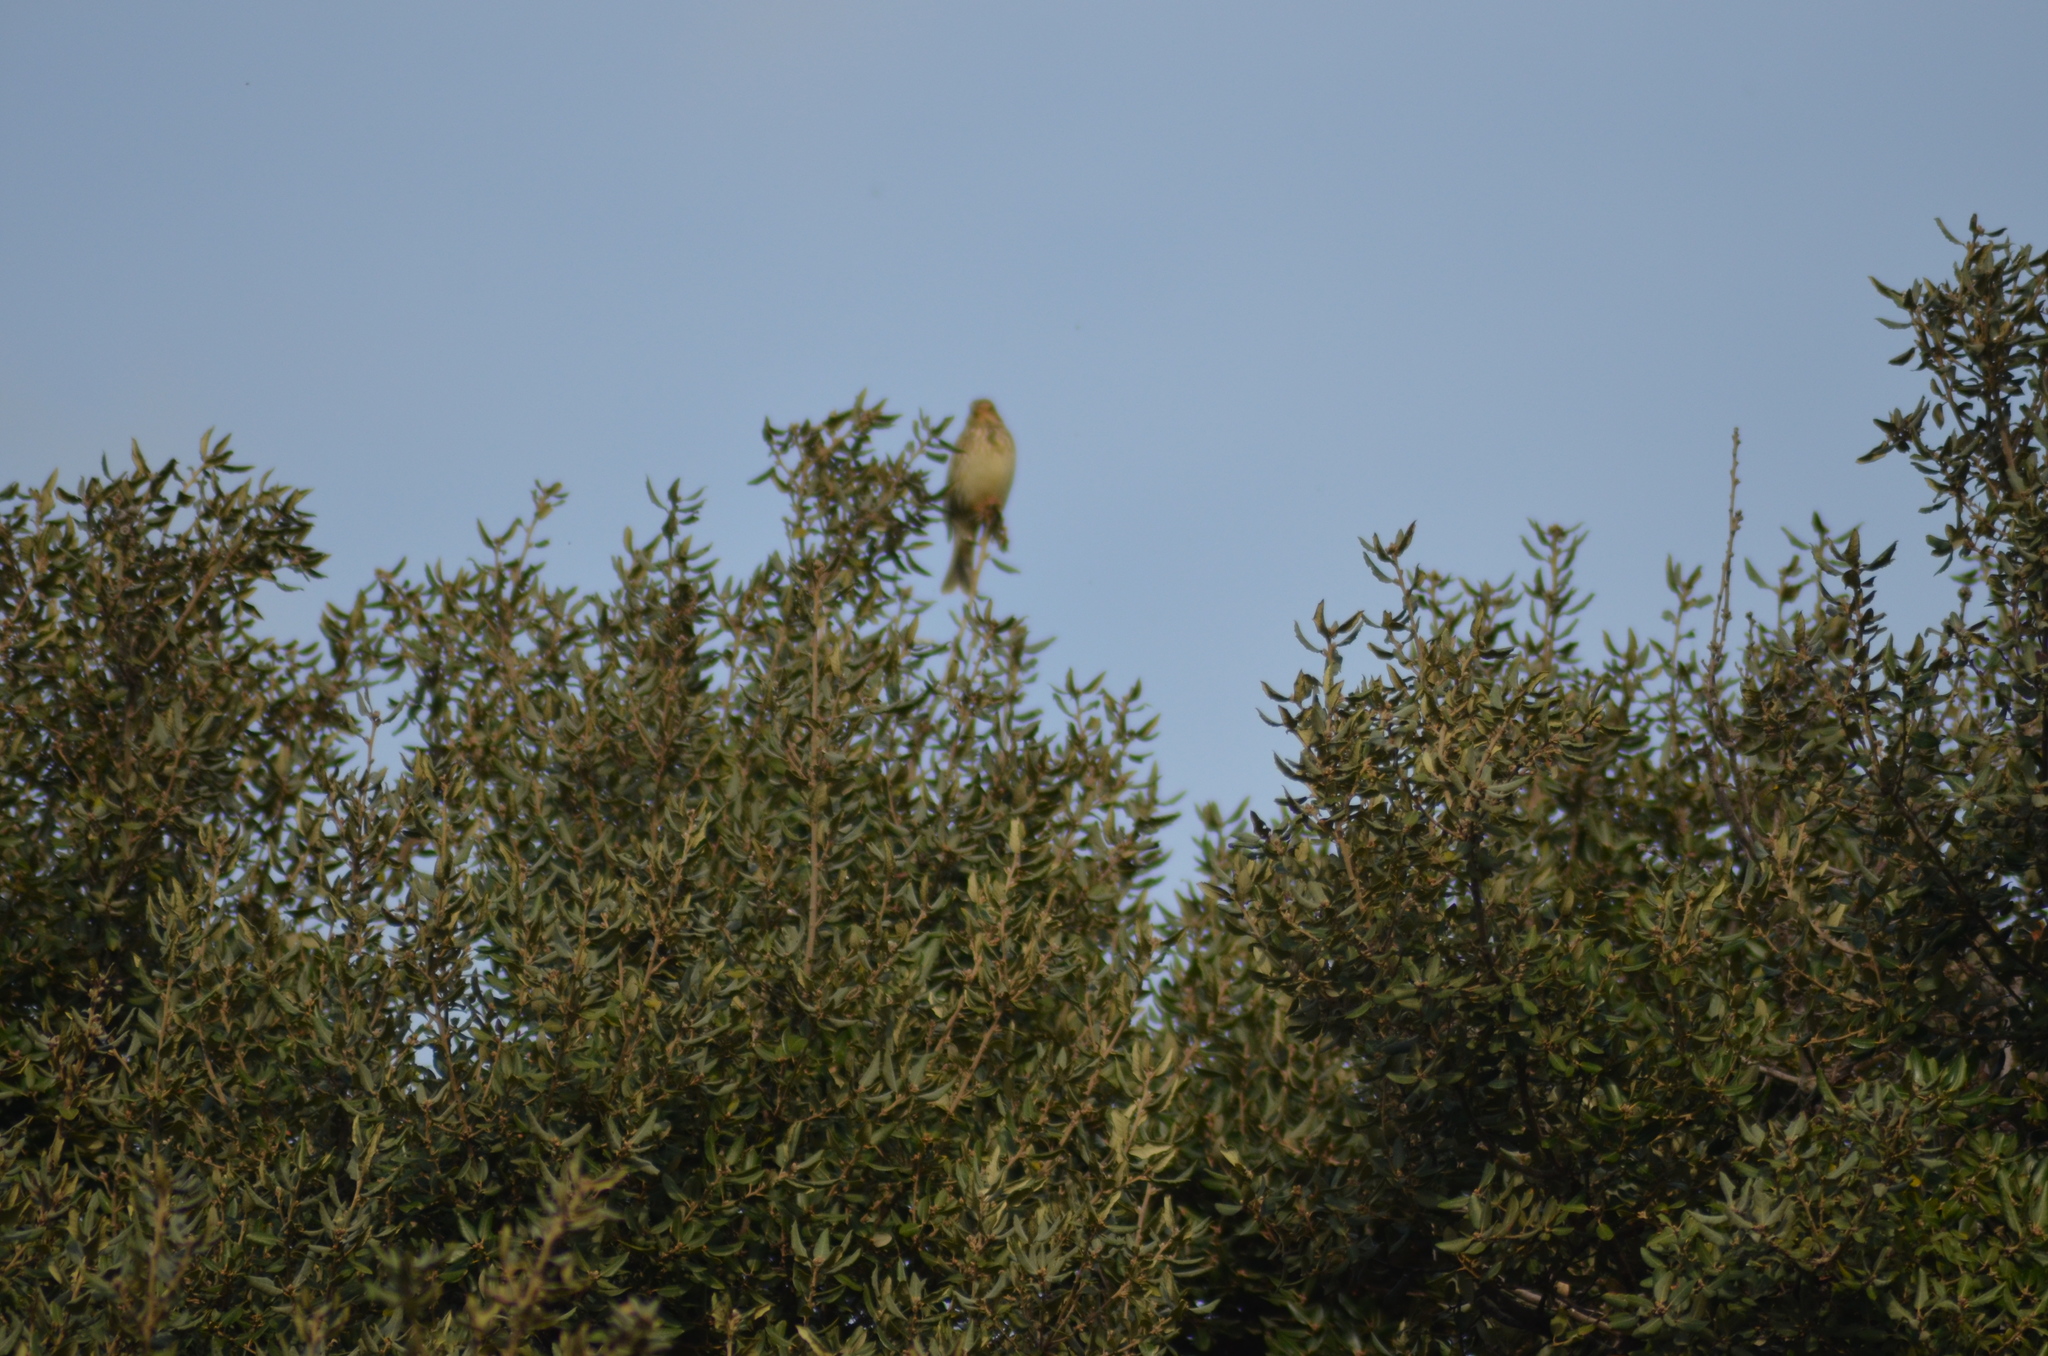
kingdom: Animalia
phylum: Chordata
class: Aves
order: Passeriformes
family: Emberizidae
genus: Emberiza
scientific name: Emberiza calandra
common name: Corn bunting
